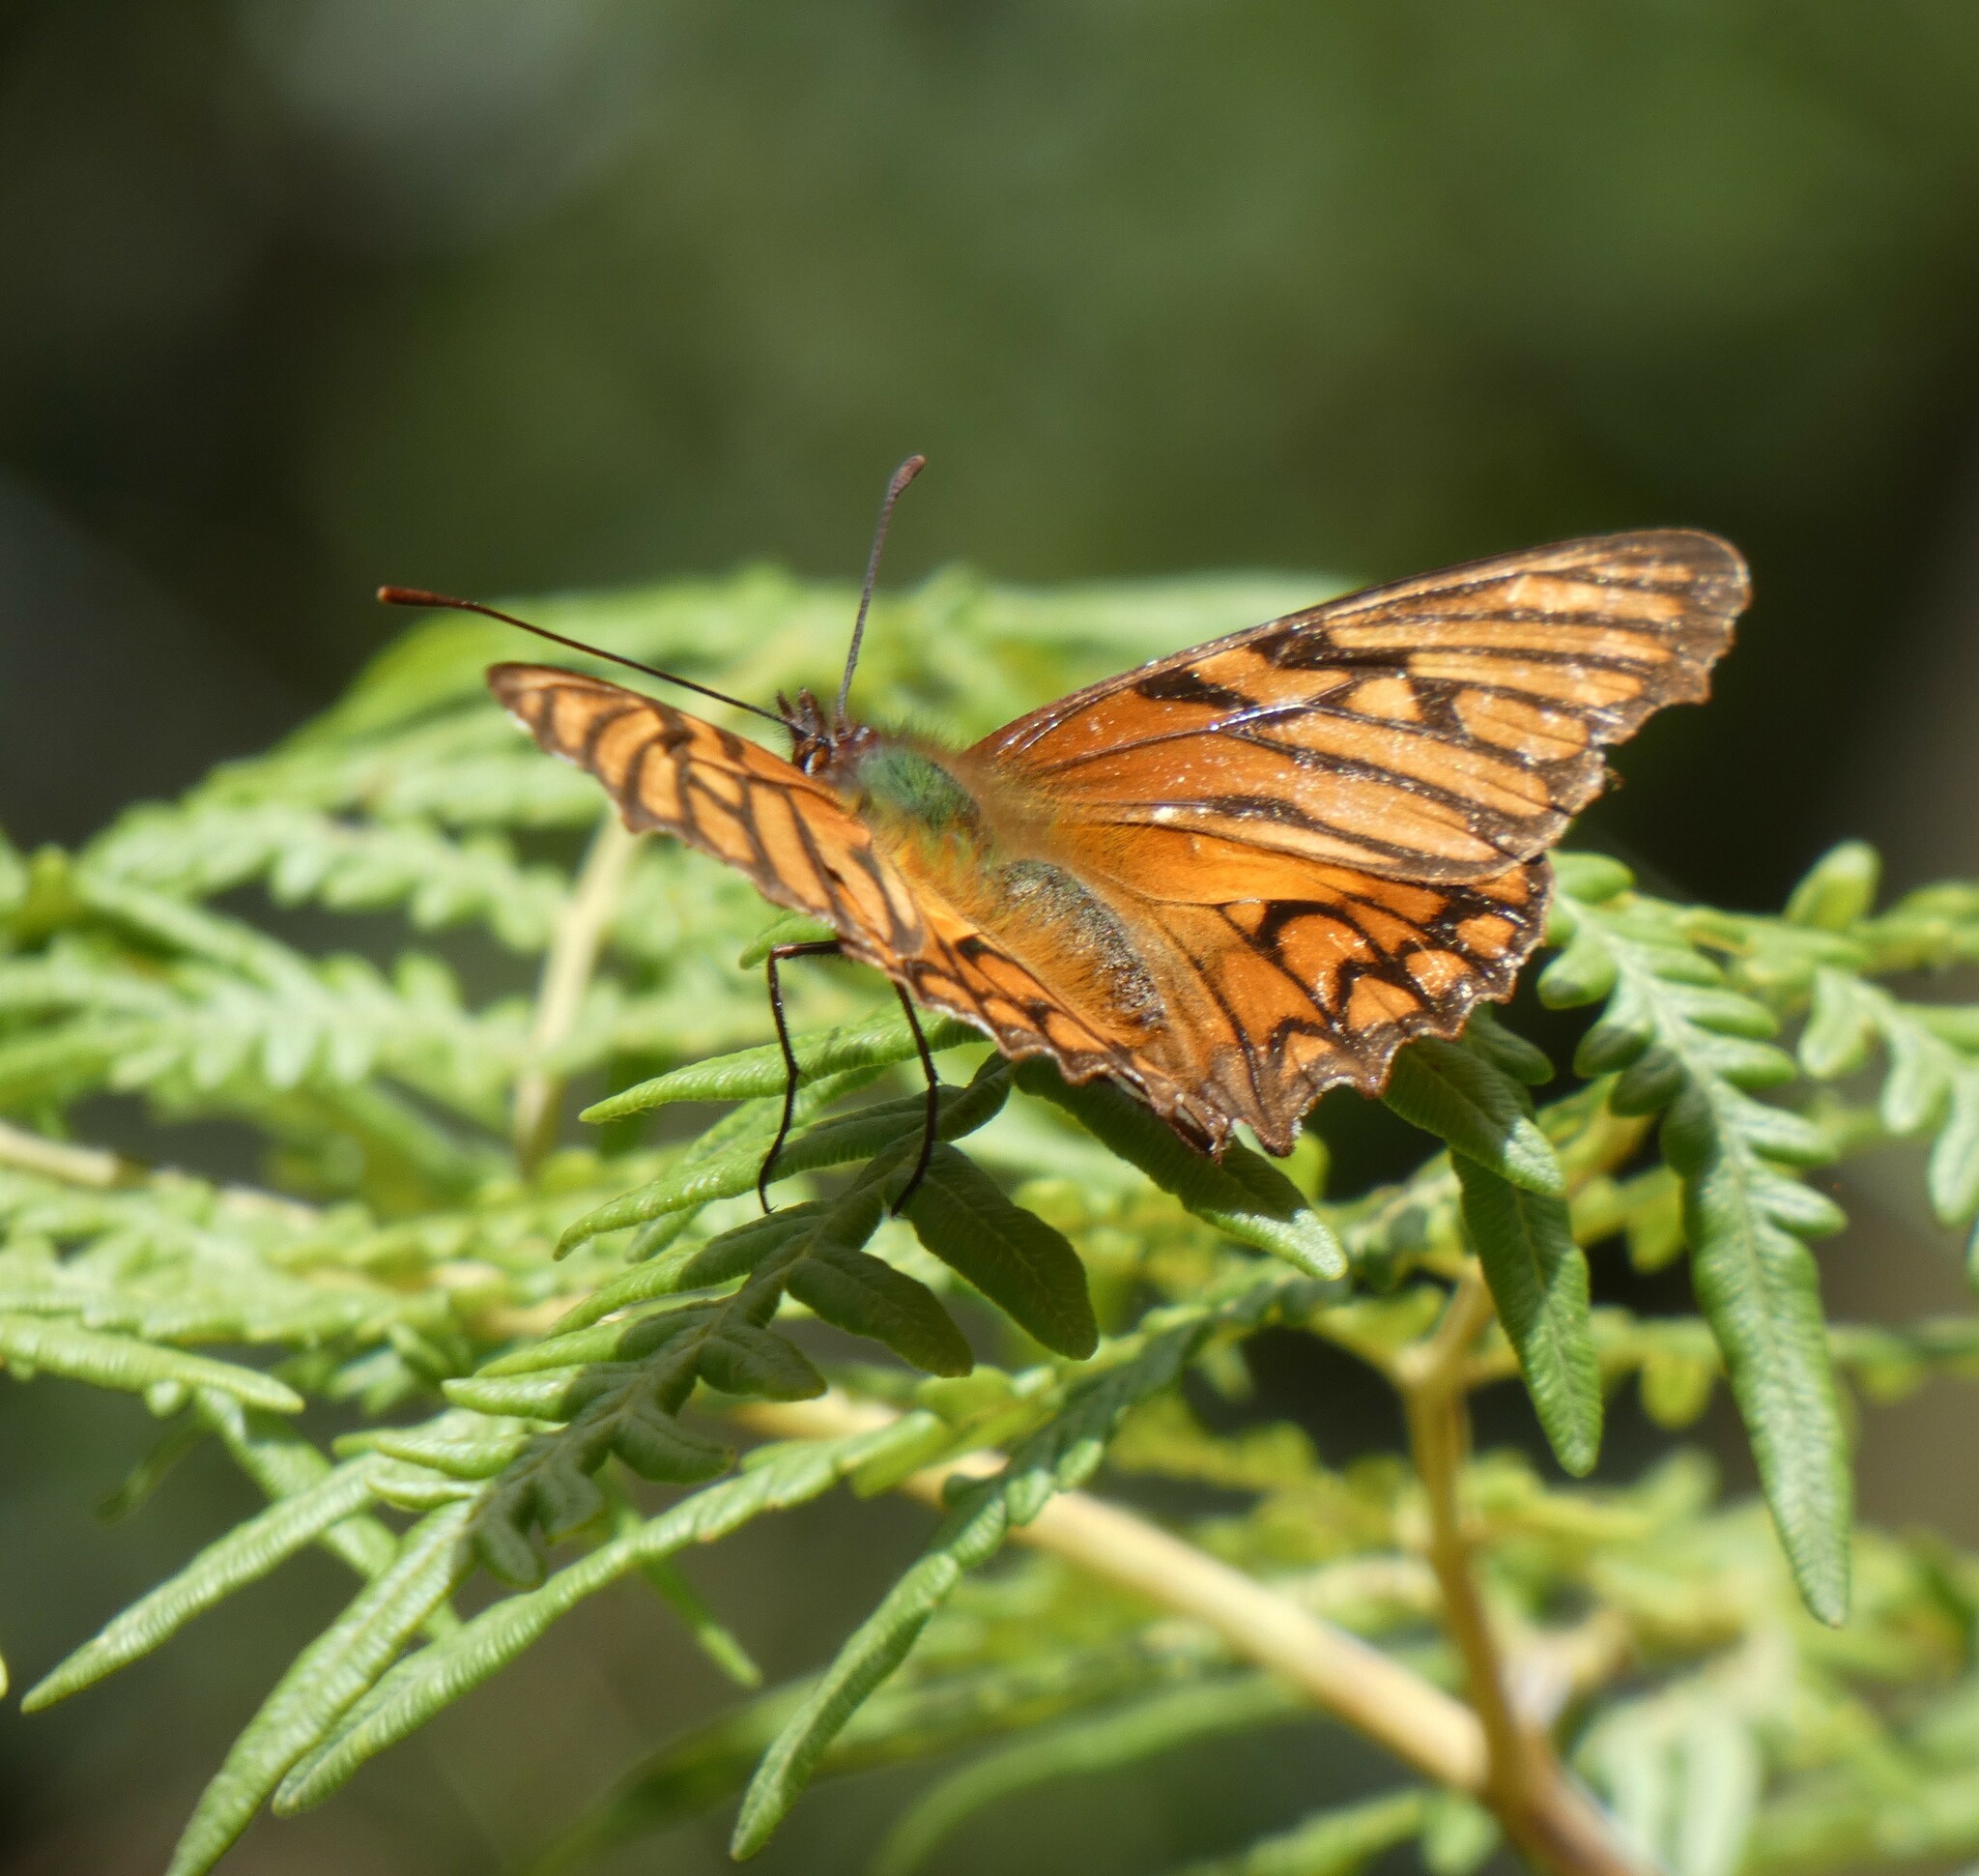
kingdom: Animalia
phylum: Arthropoda
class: Insecta
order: Lepidoptera
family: Nymphalidae
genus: Dione
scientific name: Dione glycera
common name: Andean silverspot
